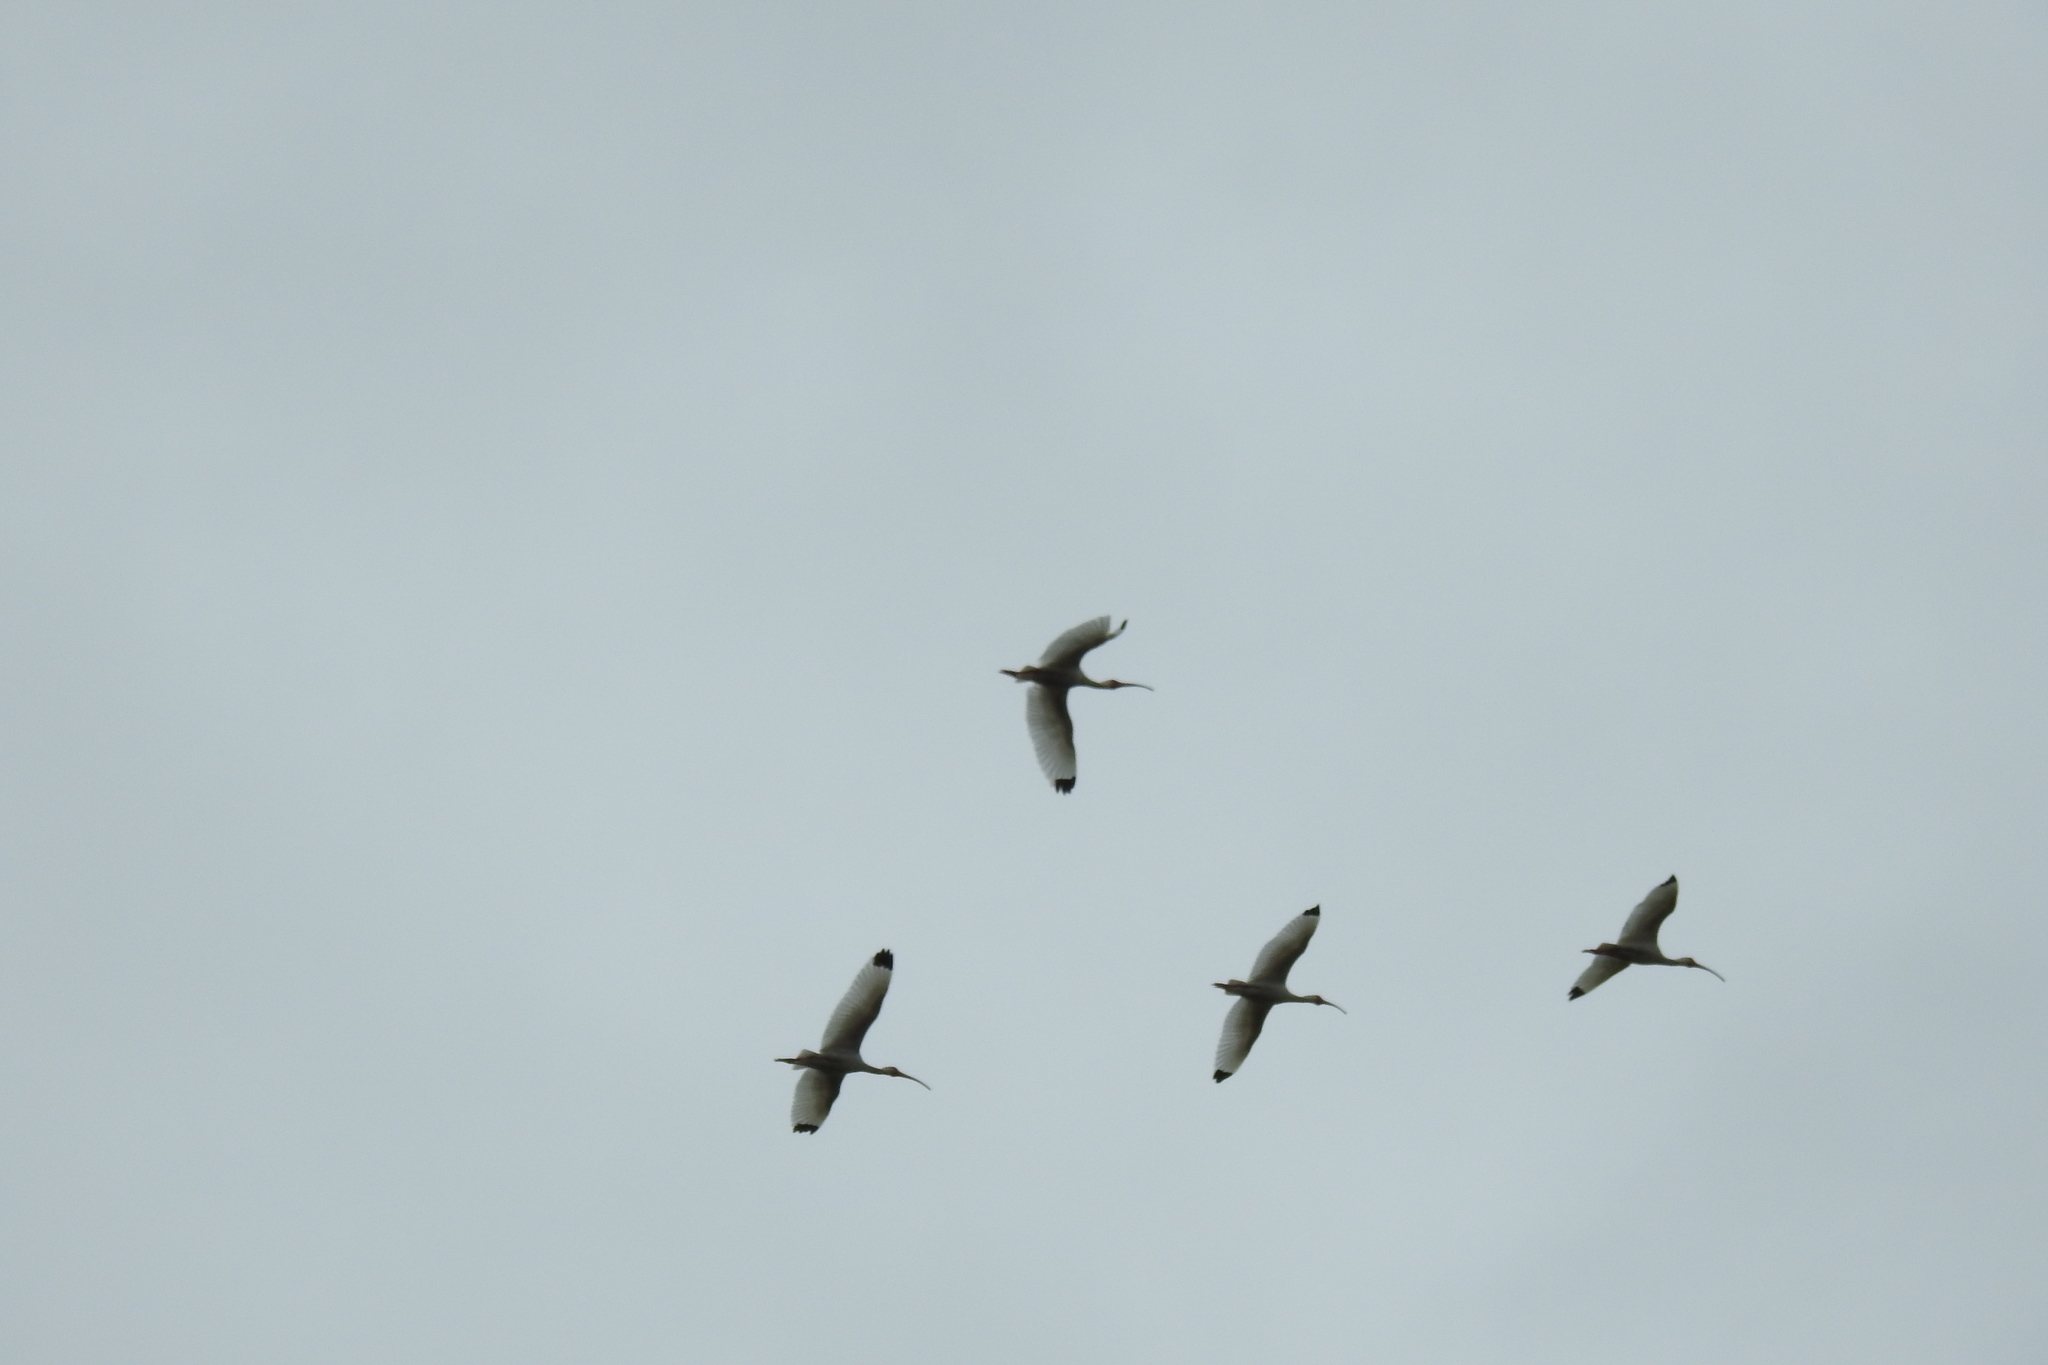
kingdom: Animalia
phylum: Chordata
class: Aves
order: Pelecaniformes
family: Threskiornithidae
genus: Eudocimus
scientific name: Eudocimus albus
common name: White ibis
